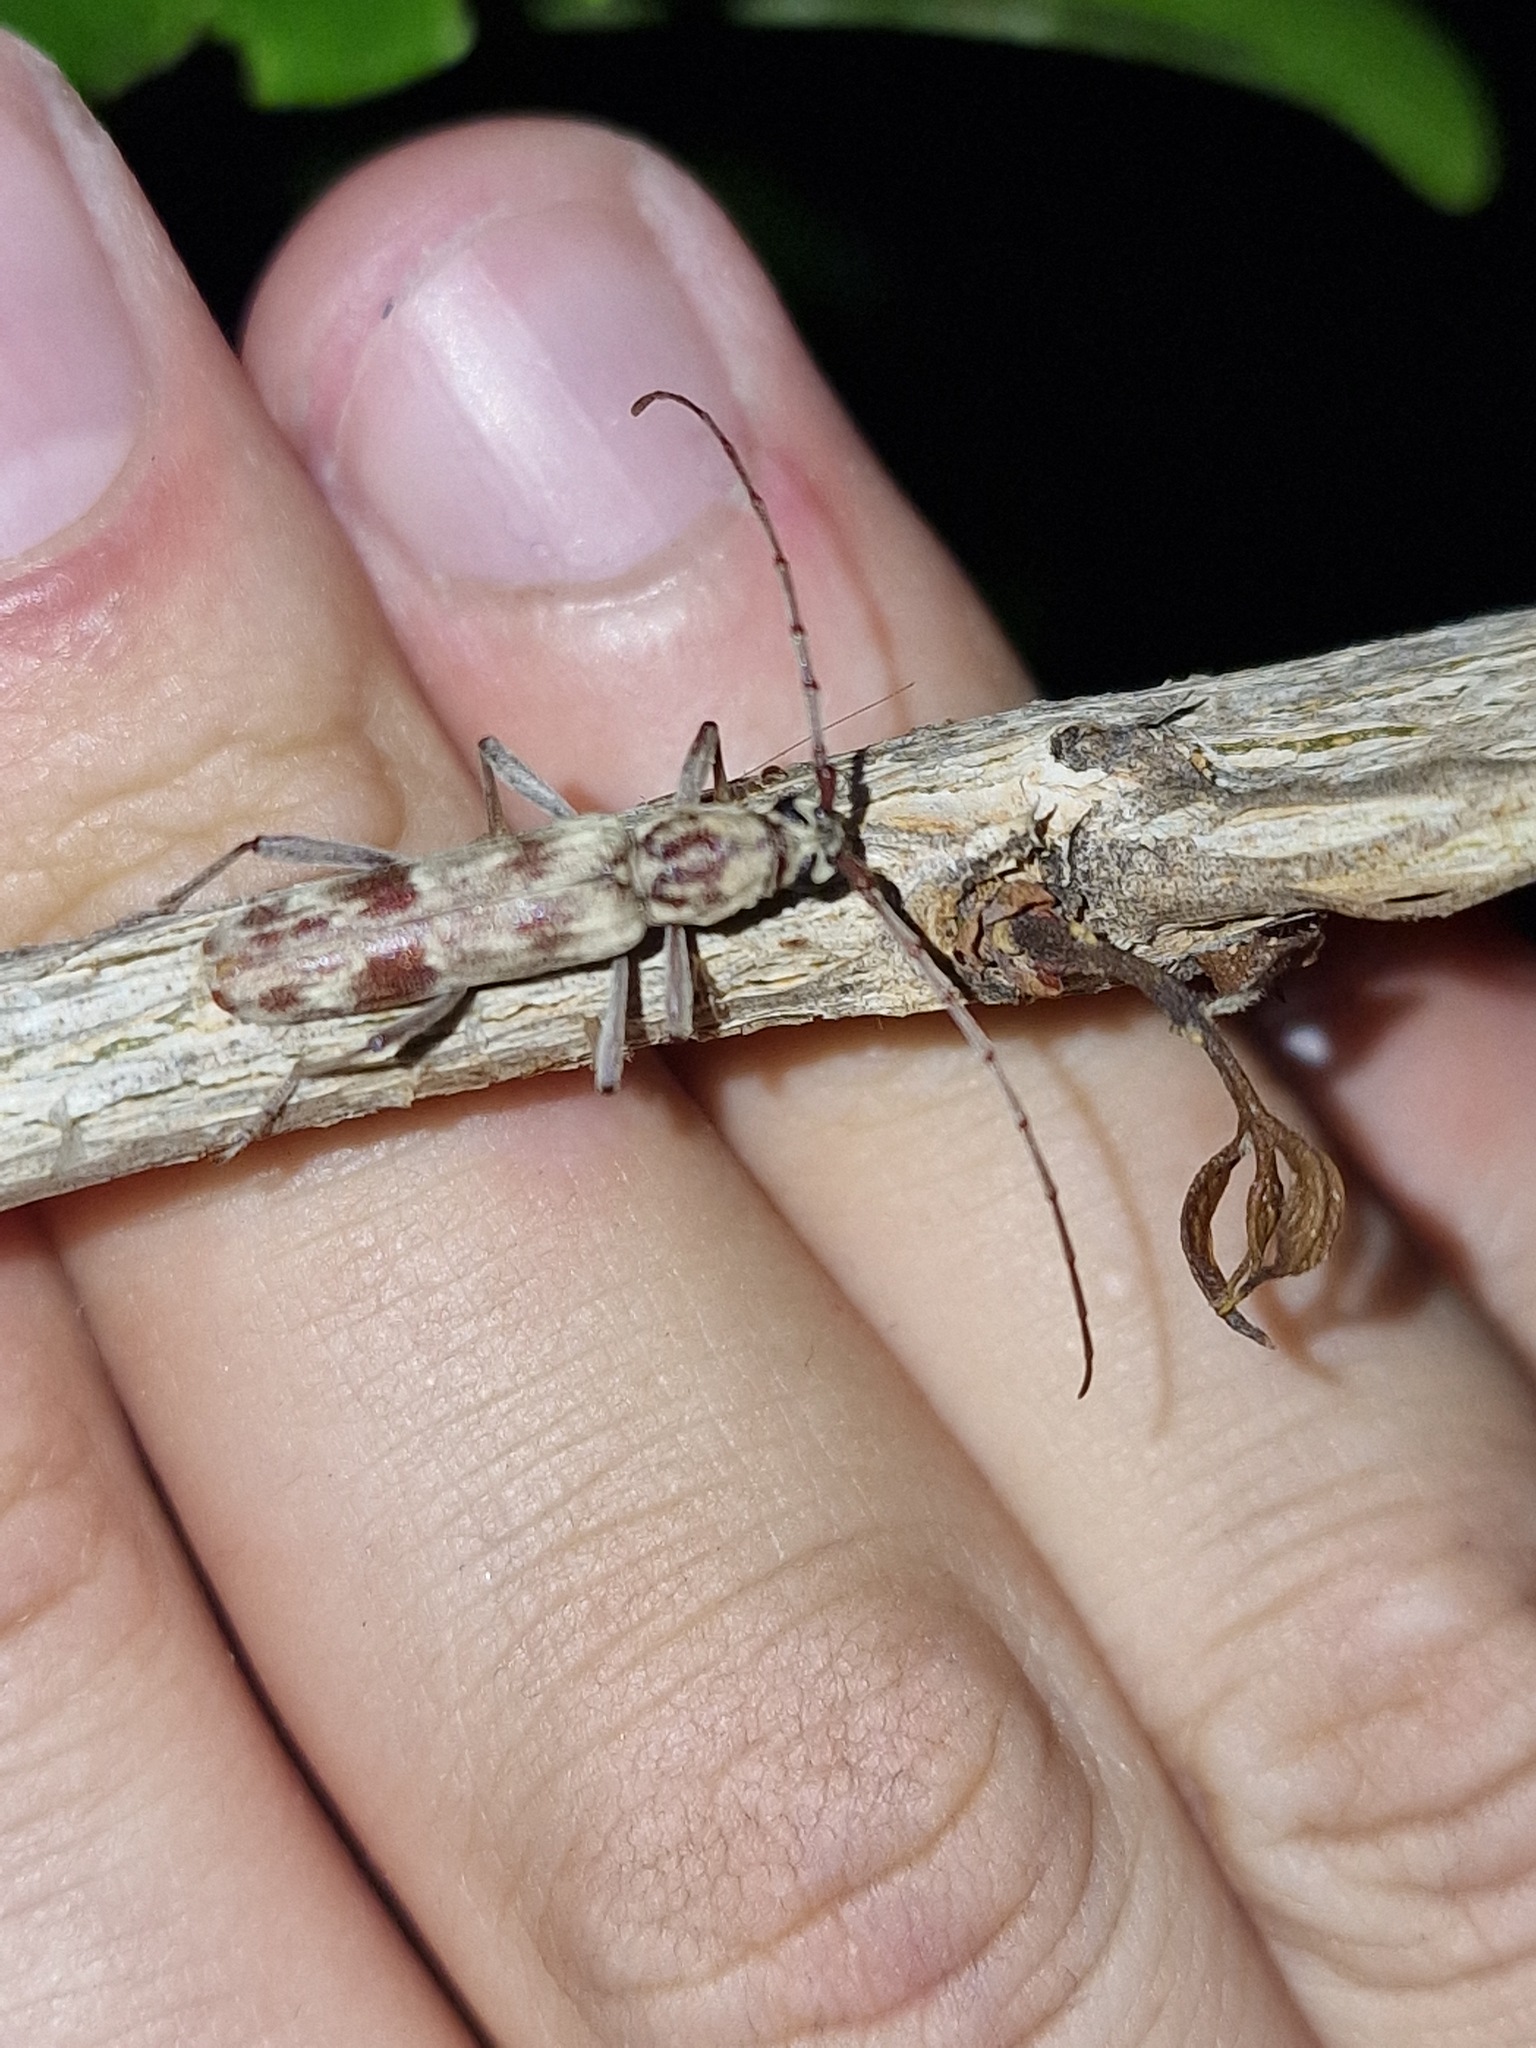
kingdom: Animalia
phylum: Arthropoda
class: Insecta
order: Coleoptera
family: Cerambycidae
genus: Derolus
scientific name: Derolus hoelzeli
